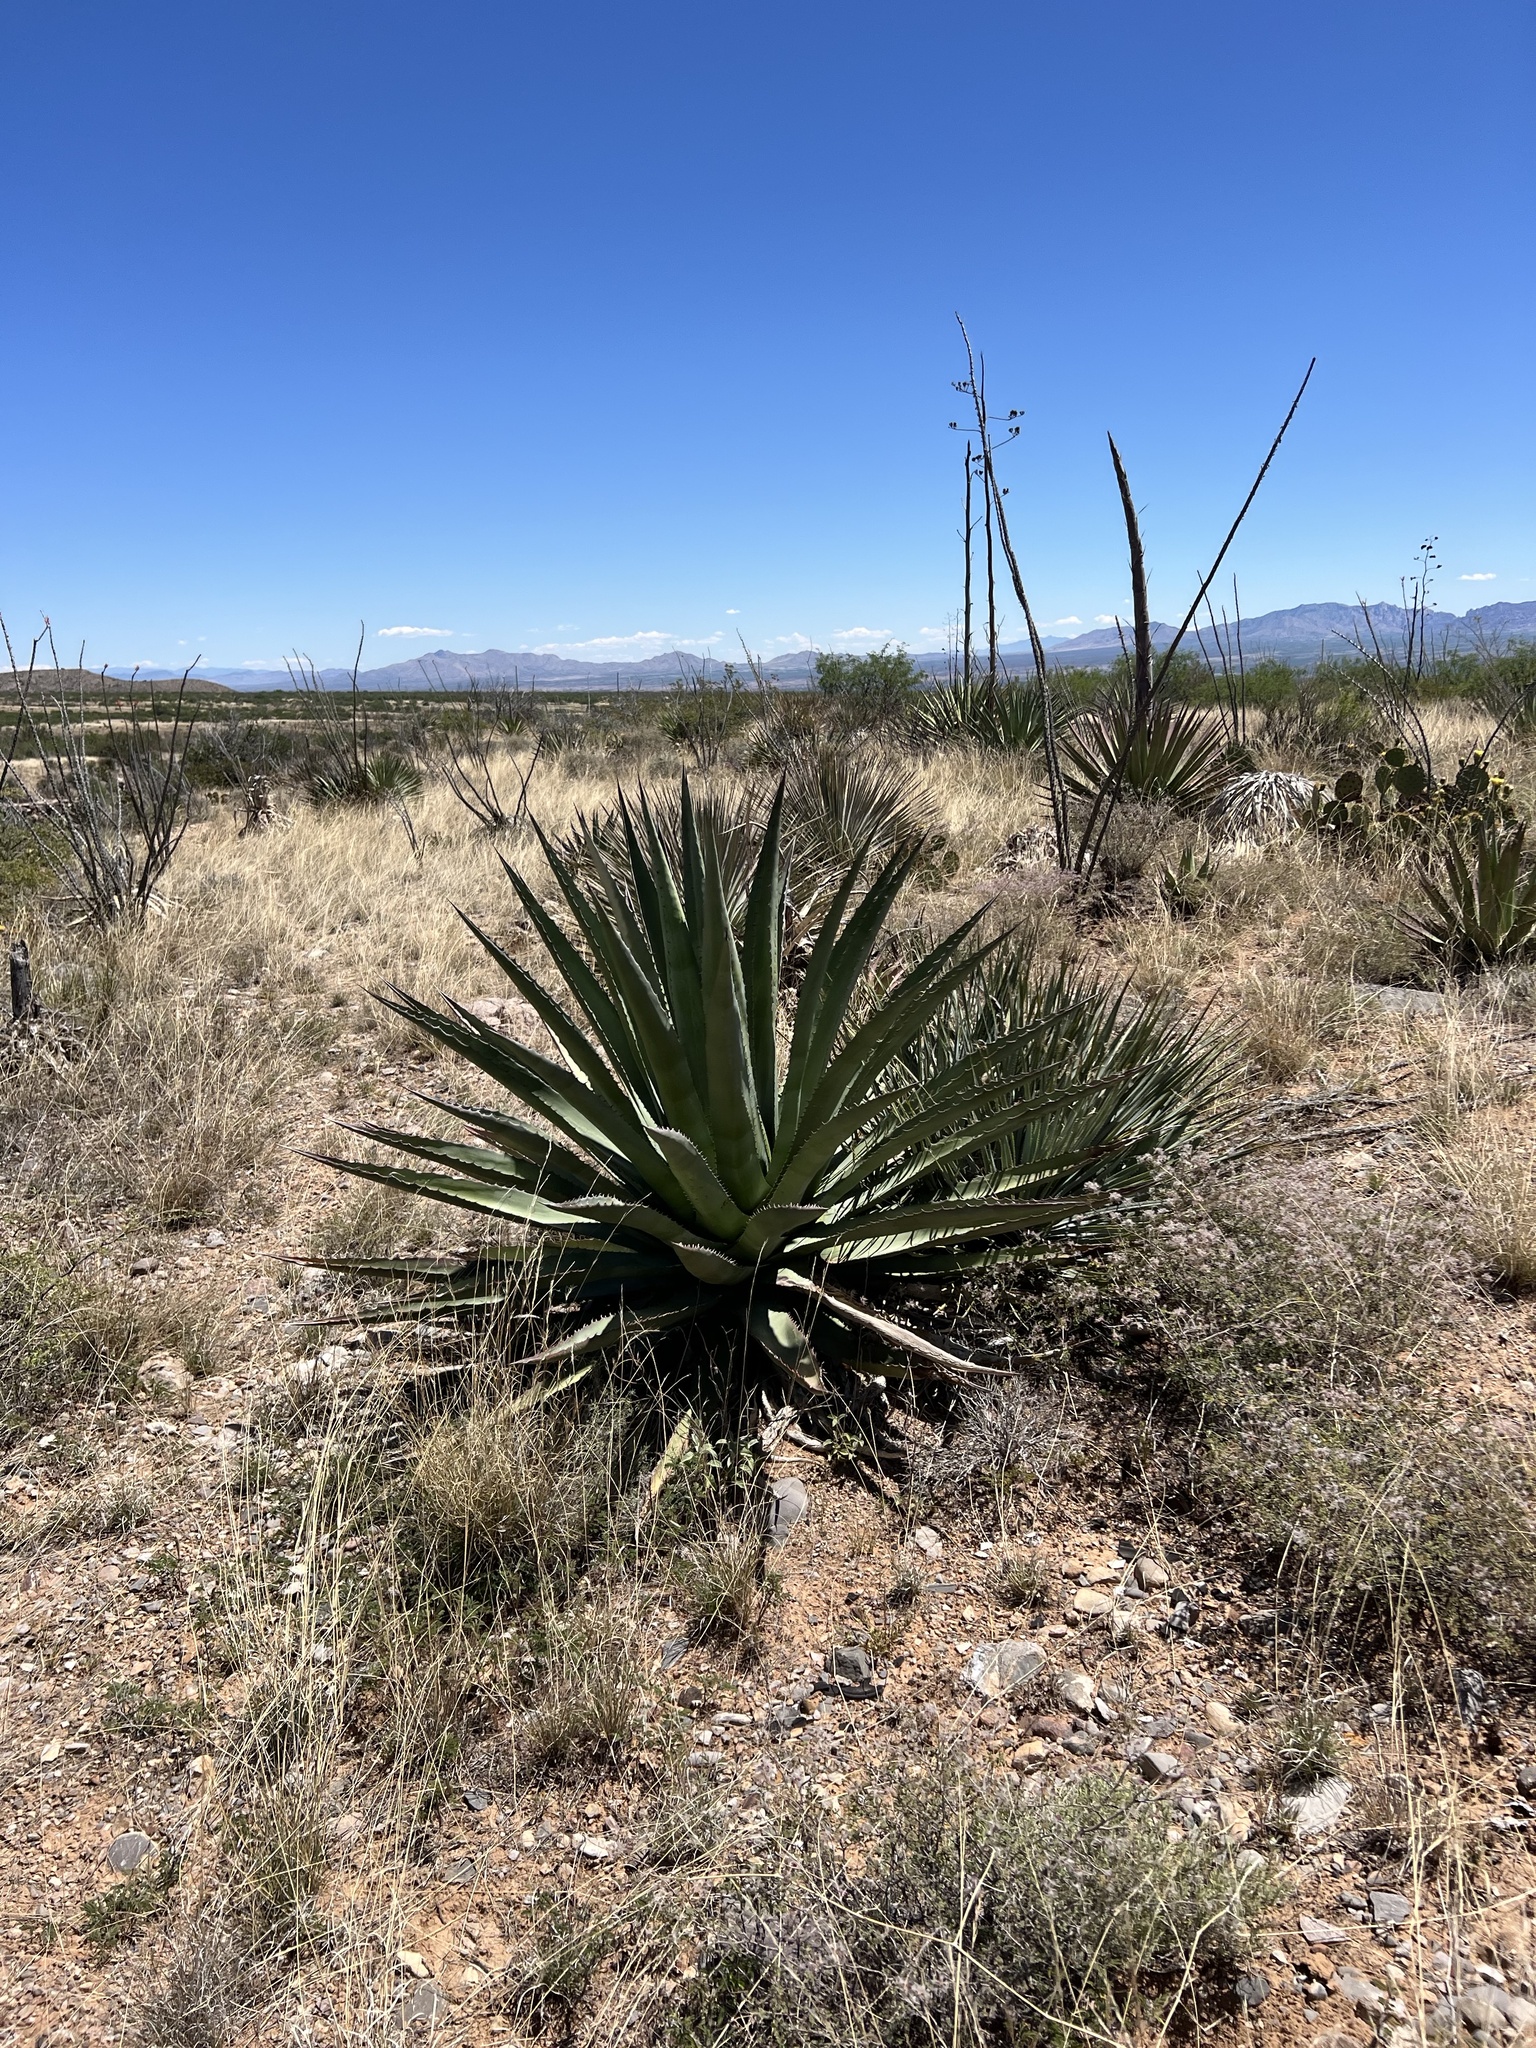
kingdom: Plantae
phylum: Tracheophyta
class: Liliopsida
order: Asparagales
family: Asparagaceae
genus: Agave
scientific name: Agave palmeri
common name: Palmer agave
